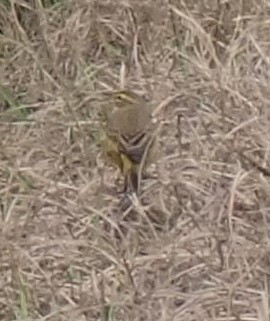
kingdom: Animalia
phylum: Chordata
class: Aves
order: Passeriformes
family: Parulidae
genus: Setophaga
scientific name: Setophaga palmarum
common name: Palm warbler
